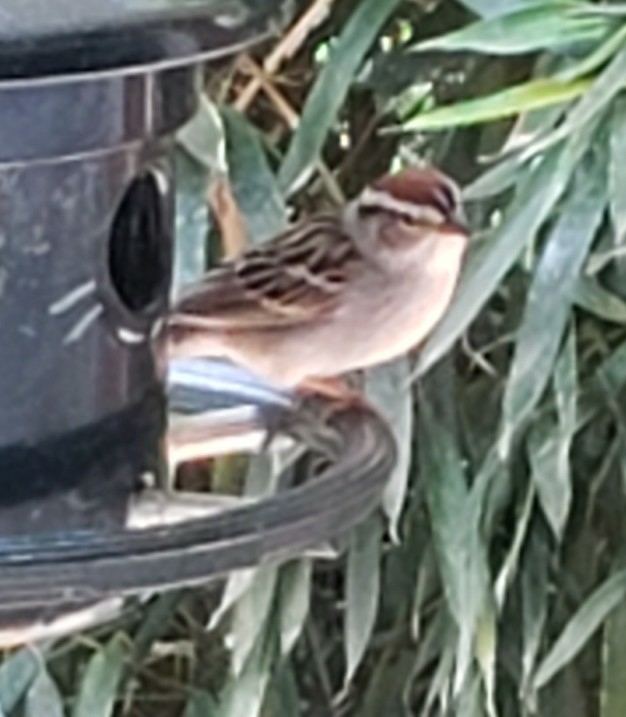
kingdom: Animalia
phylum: Chordata
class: Aves
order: Passeriformes
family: Passerellidae
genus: Spizella
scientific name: Spizella passerina
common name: Chipping sparrow
